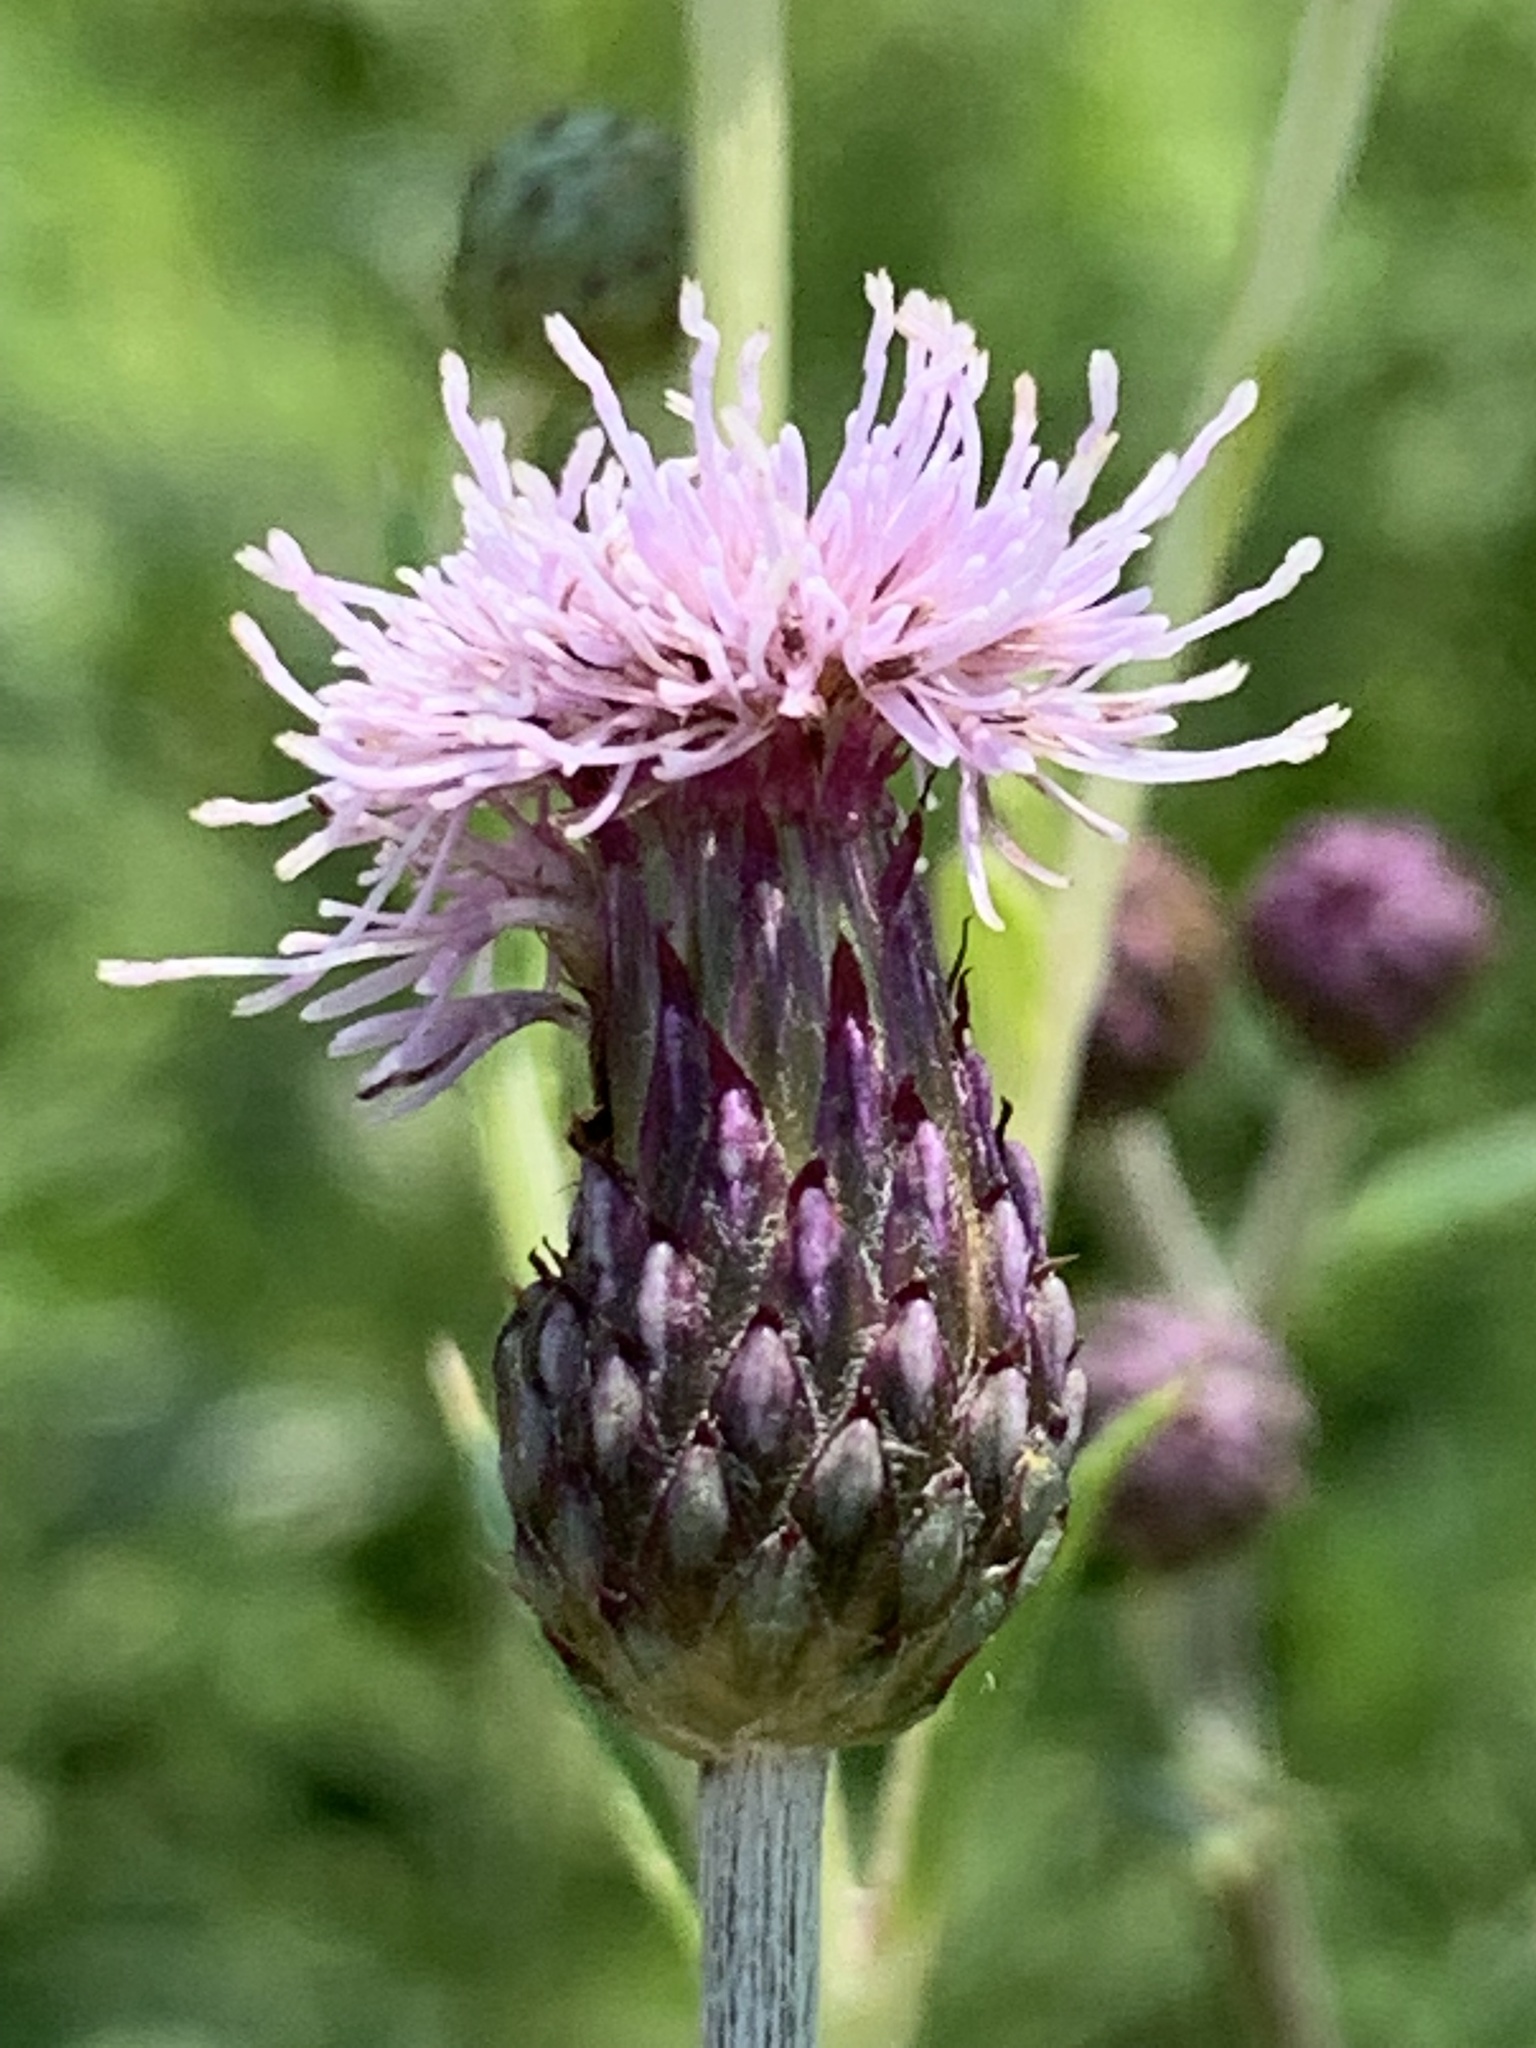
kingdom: Plantae
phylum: Tracheophyta
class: Magnoliopsida
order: Asterales
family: Asteraceae
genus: Cirsium
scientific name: Cirsium arvense
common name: Creeping thistle
